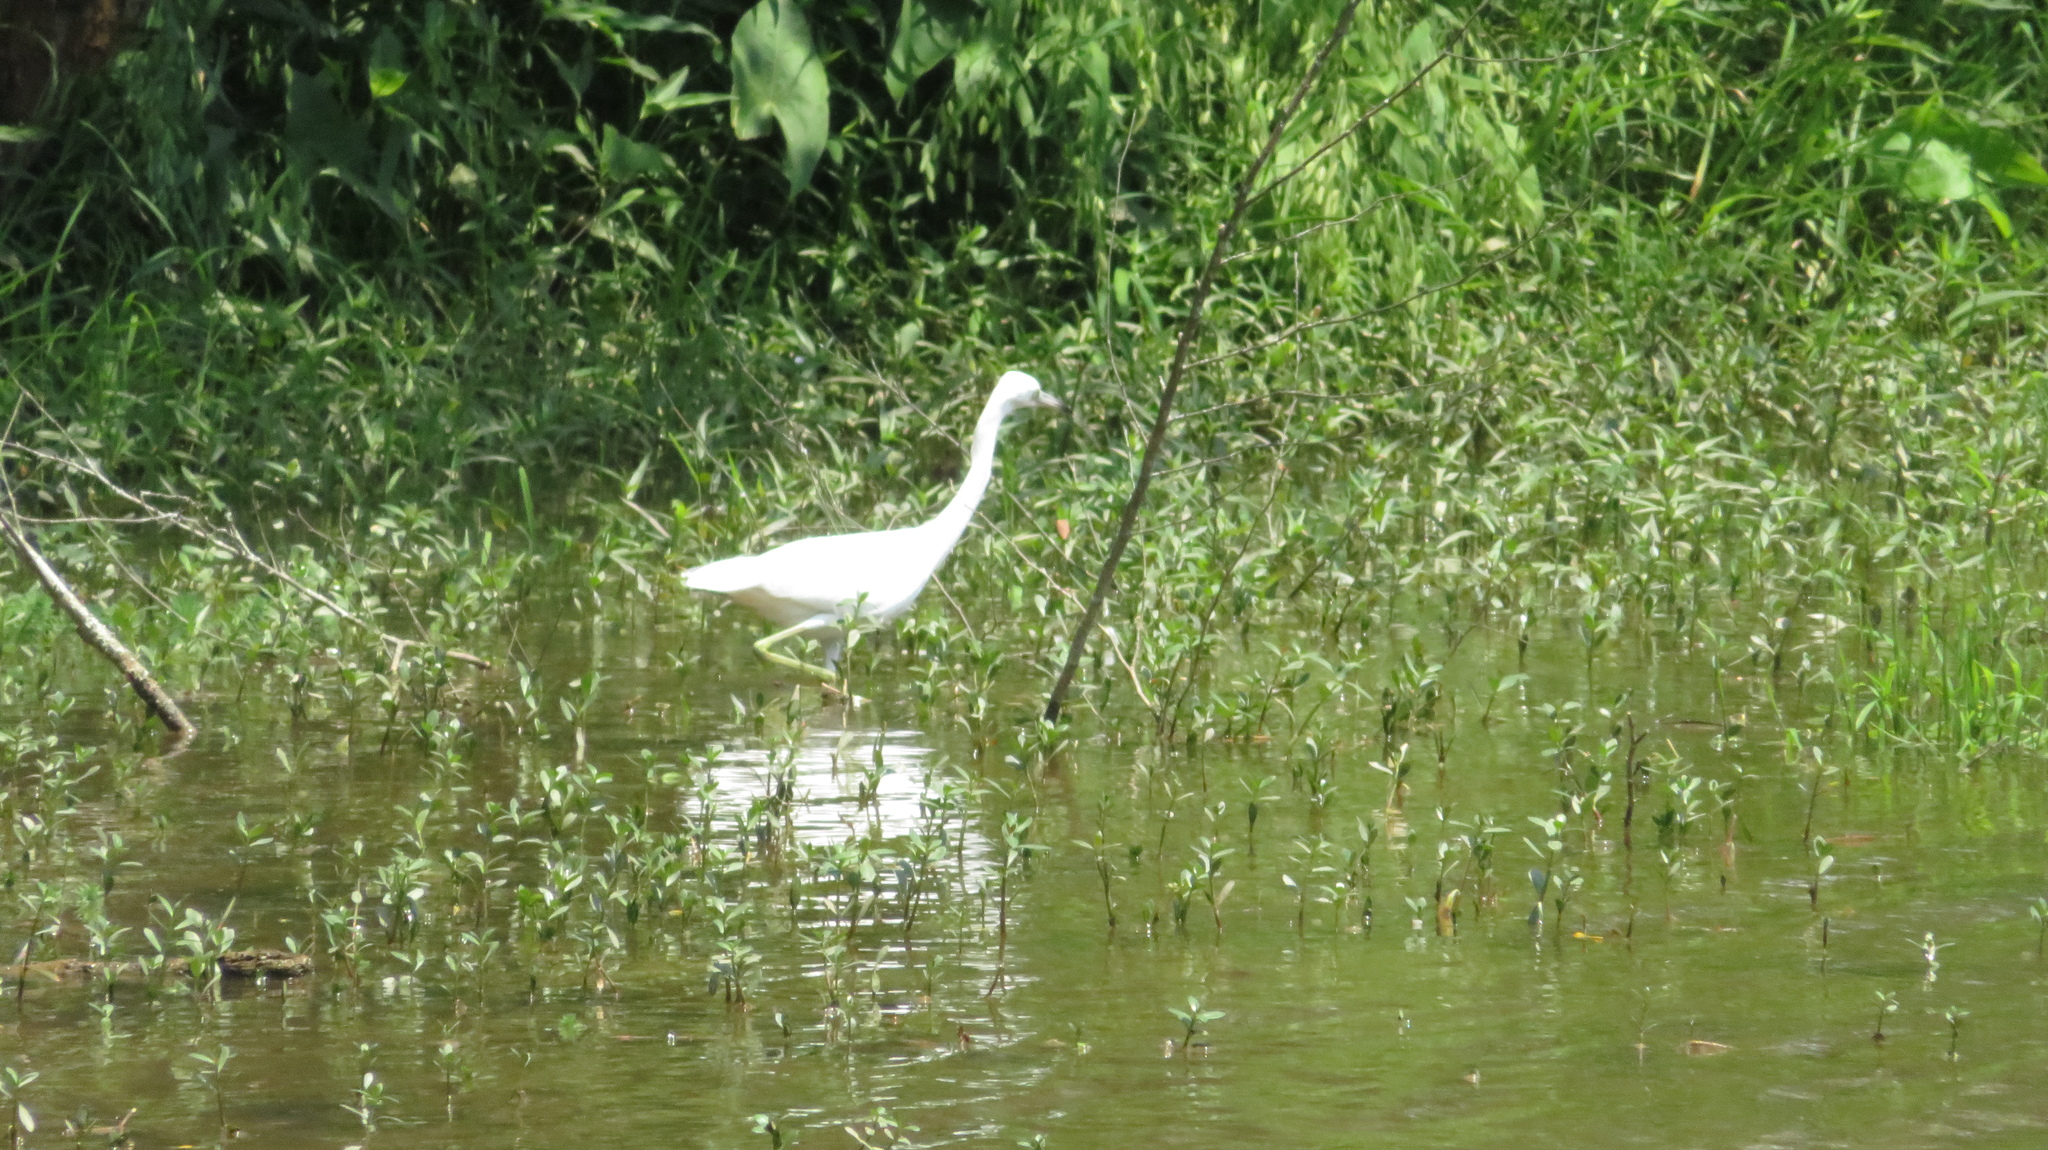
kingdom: Animalia
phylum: Chordata
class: Aves
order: Pelecaniformes
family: Ardeidae
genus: Egretta
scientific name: Egretta caerulea
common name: Little blue heron
